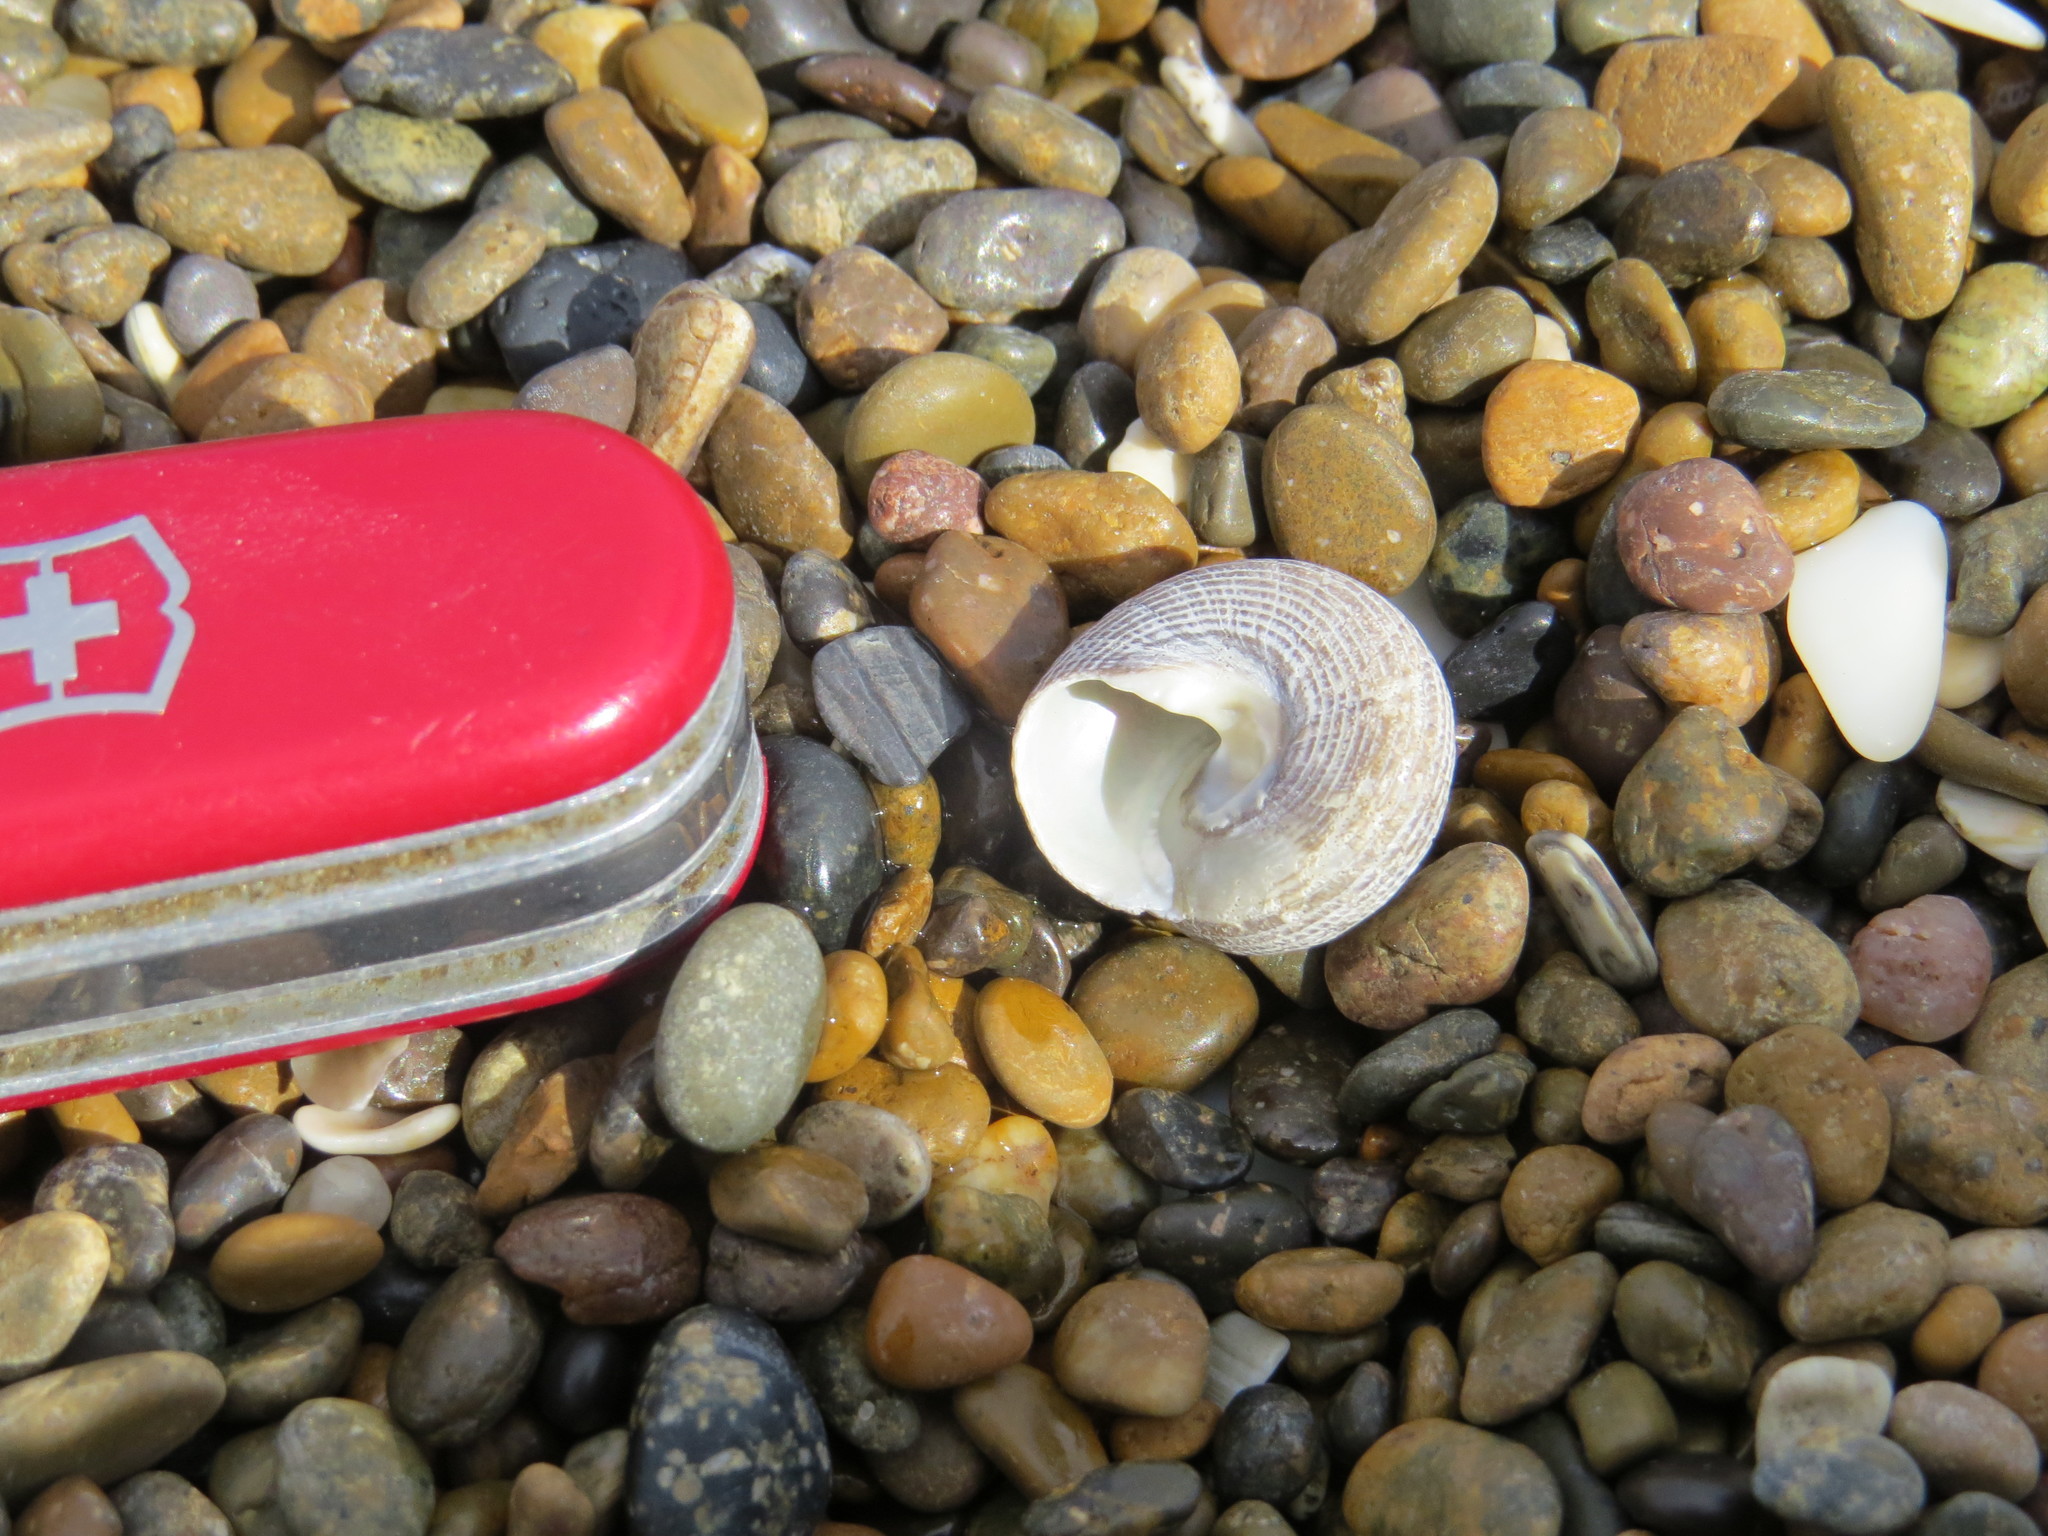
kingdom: Animalia
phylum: Mollusca
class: Gastropoda
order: Trochida
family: Tegulidae
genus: Tegula
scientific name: Tegula patagonica
